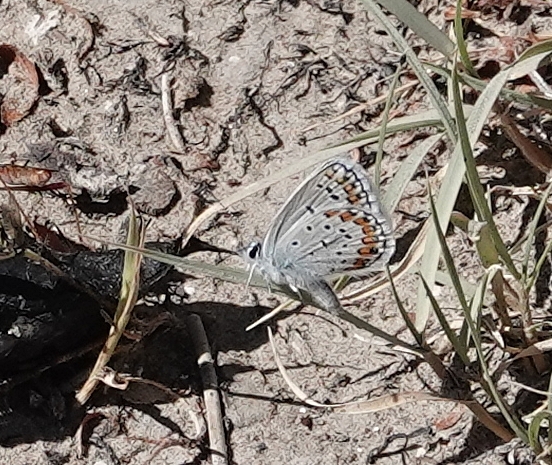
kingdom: Animalia
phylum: Arthropoda
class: Insecta
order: Lepidoptera
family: Lycaenidae
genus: Lycaeides
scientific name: Lycaeides melissa
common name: Melissa blue
